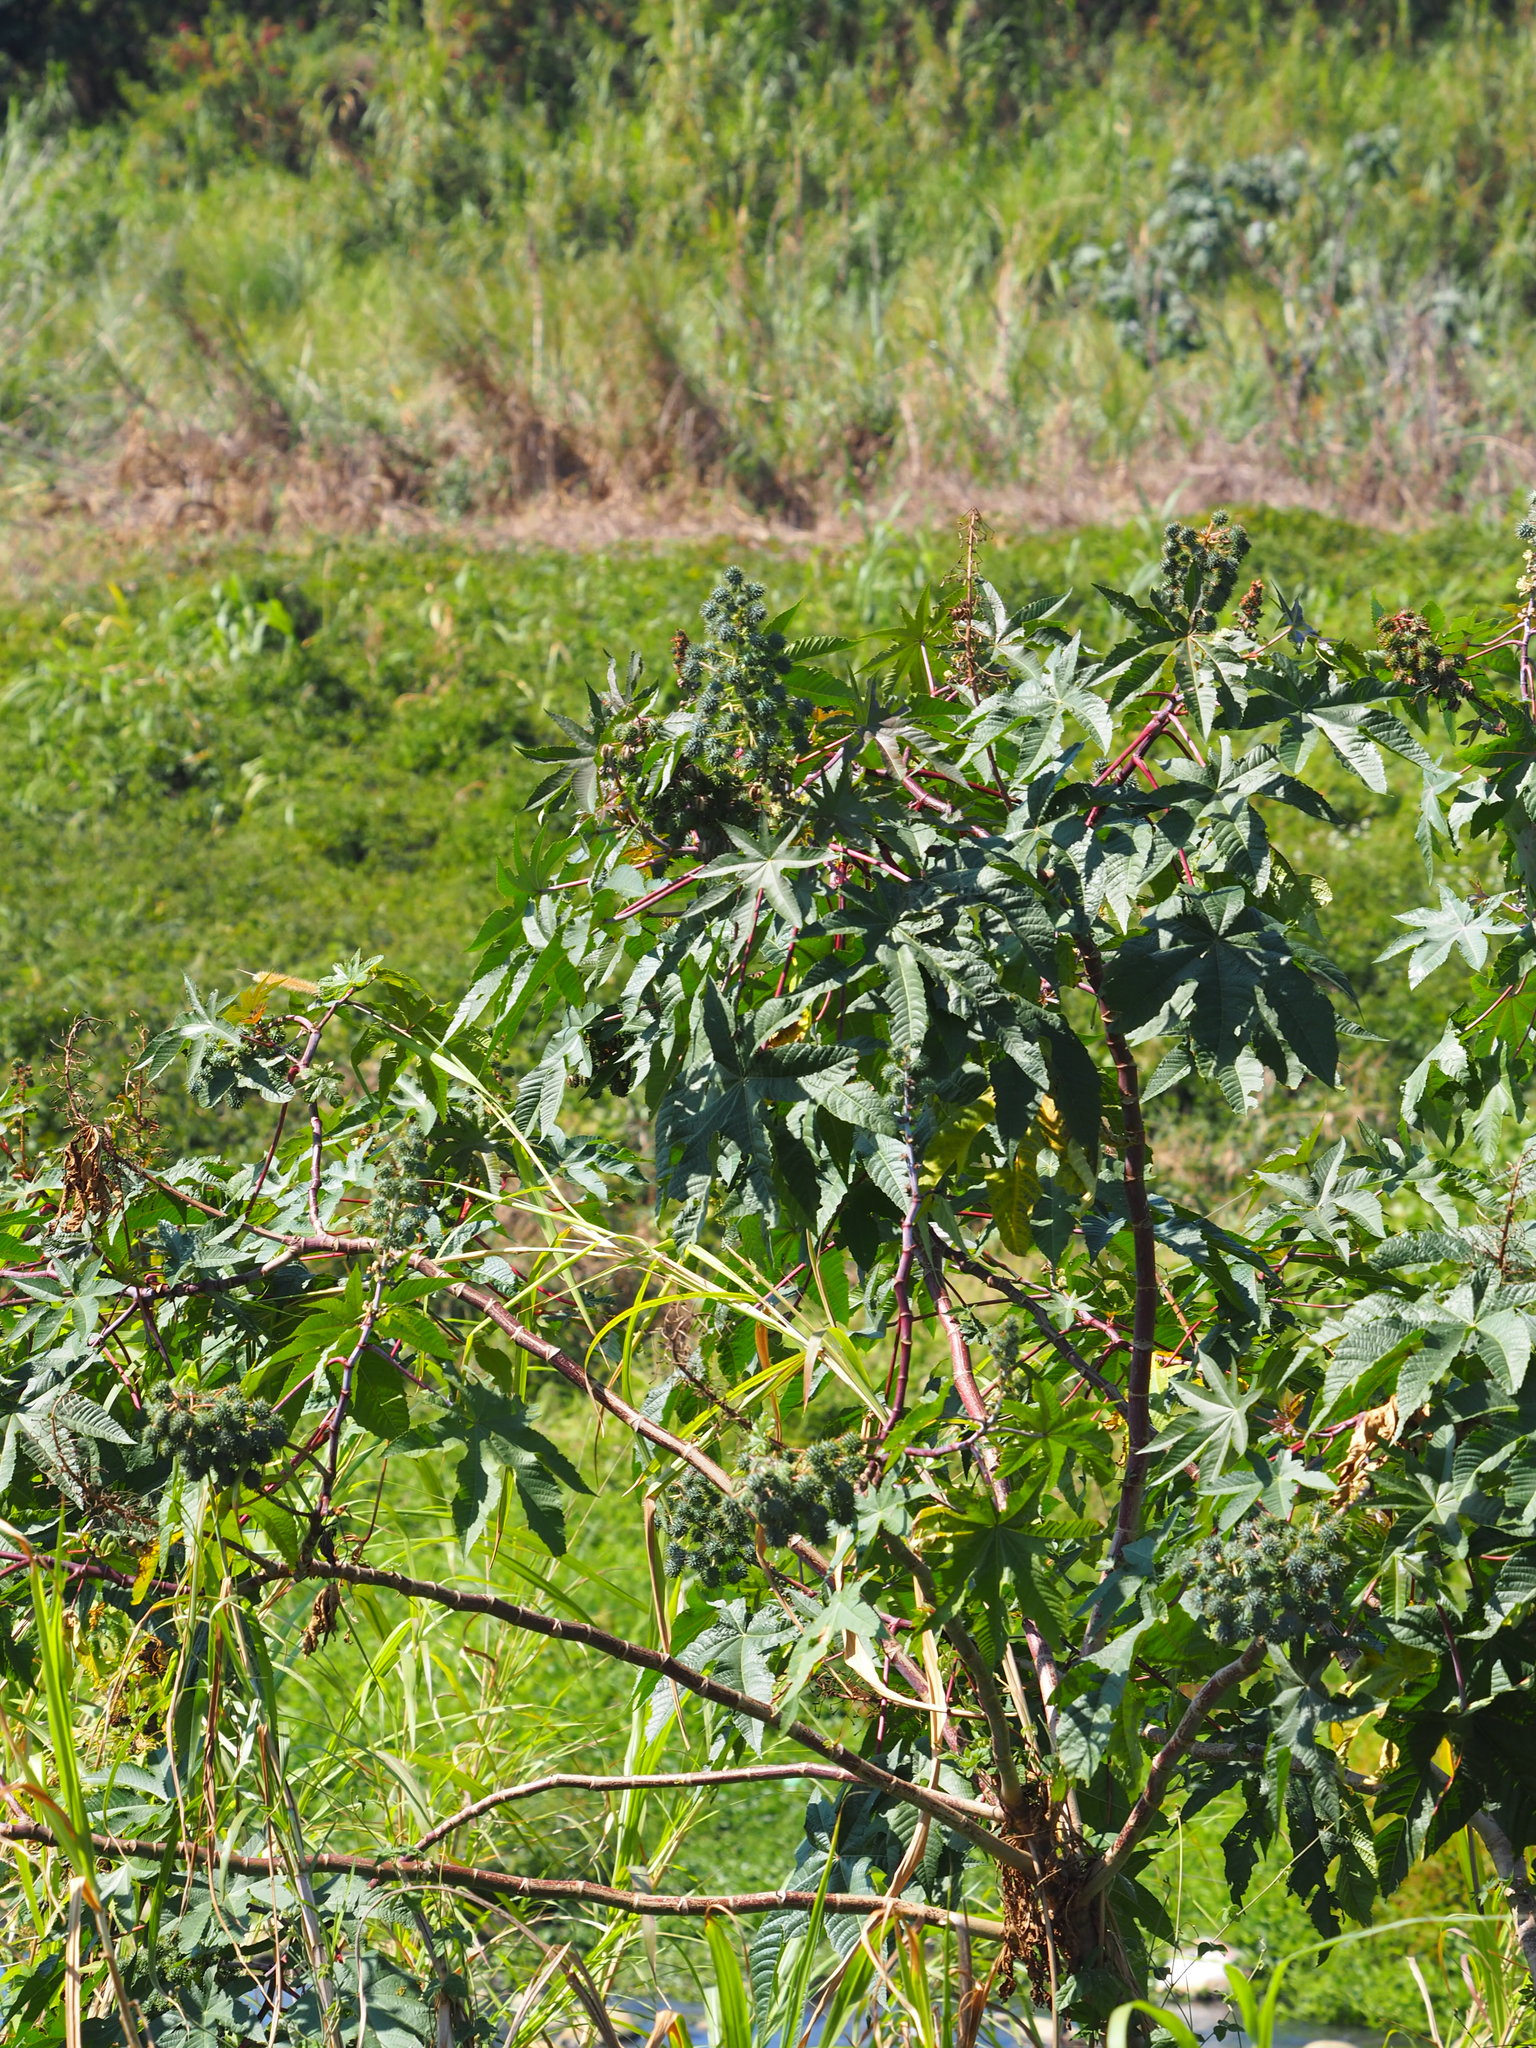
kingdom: Plantae
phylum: Tracheophyta
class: Magnoliopsida
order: Malpighiales
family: Euphorbiaceae
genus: Ricinus
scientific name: Ricinus communis
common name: Castor-oil-plant
